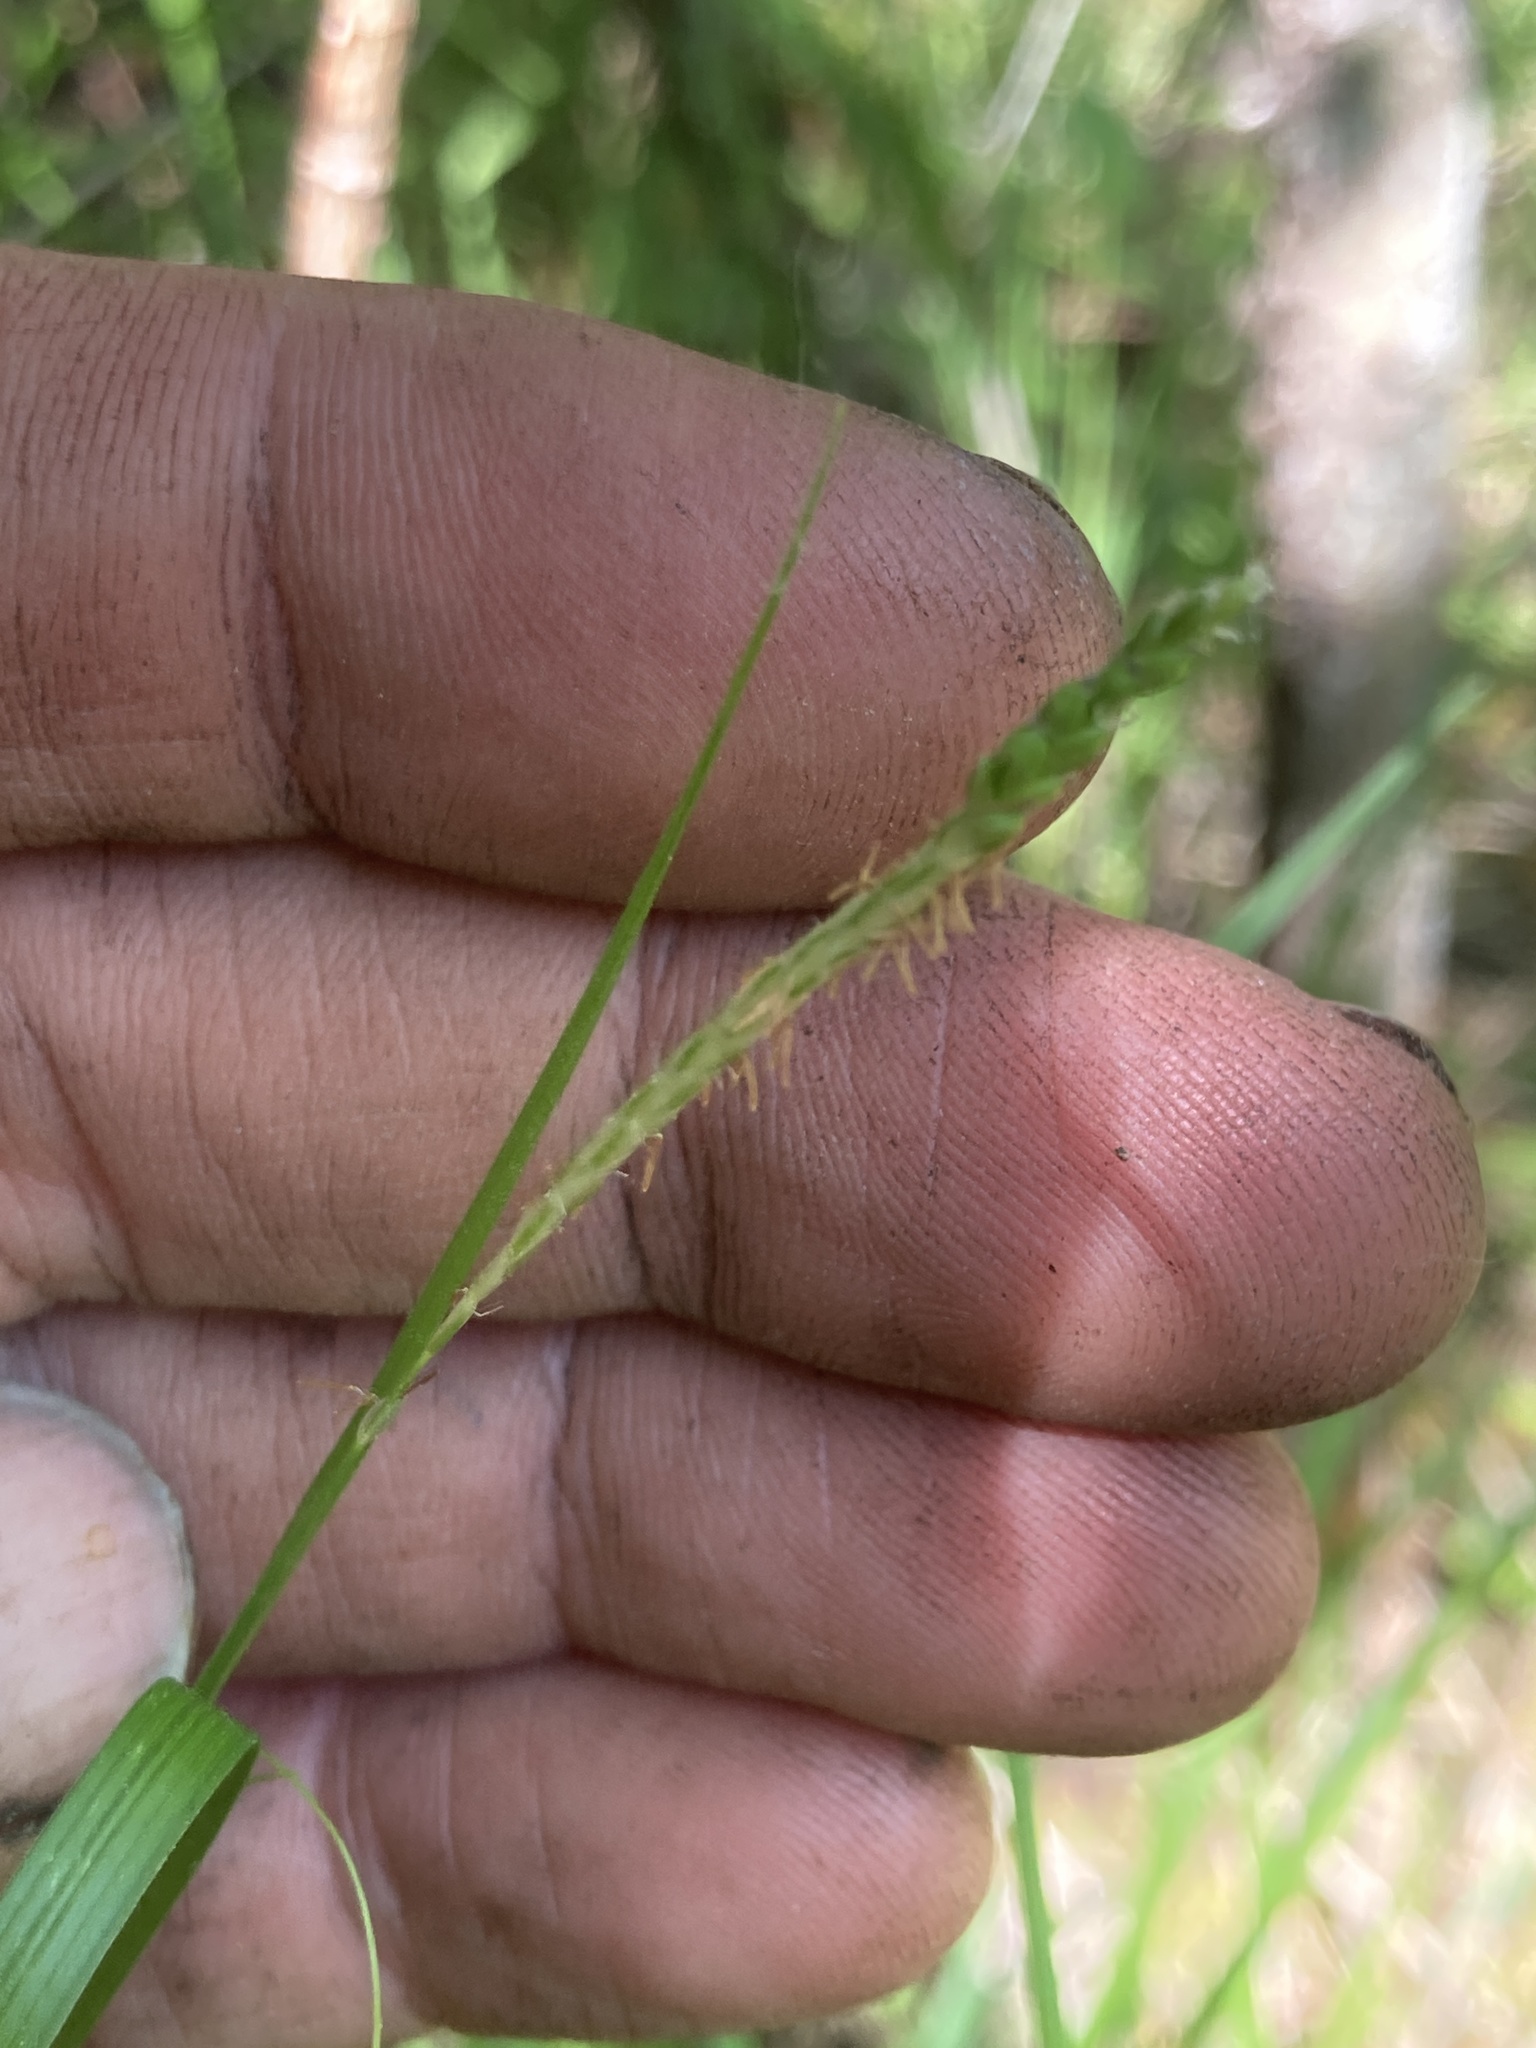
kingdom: Plantae
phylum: Tracheophyta
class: Liliopsida
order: Poales
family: Cyperaceae
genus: Carex
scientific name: Carex gracillima
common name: Graceful sedge
